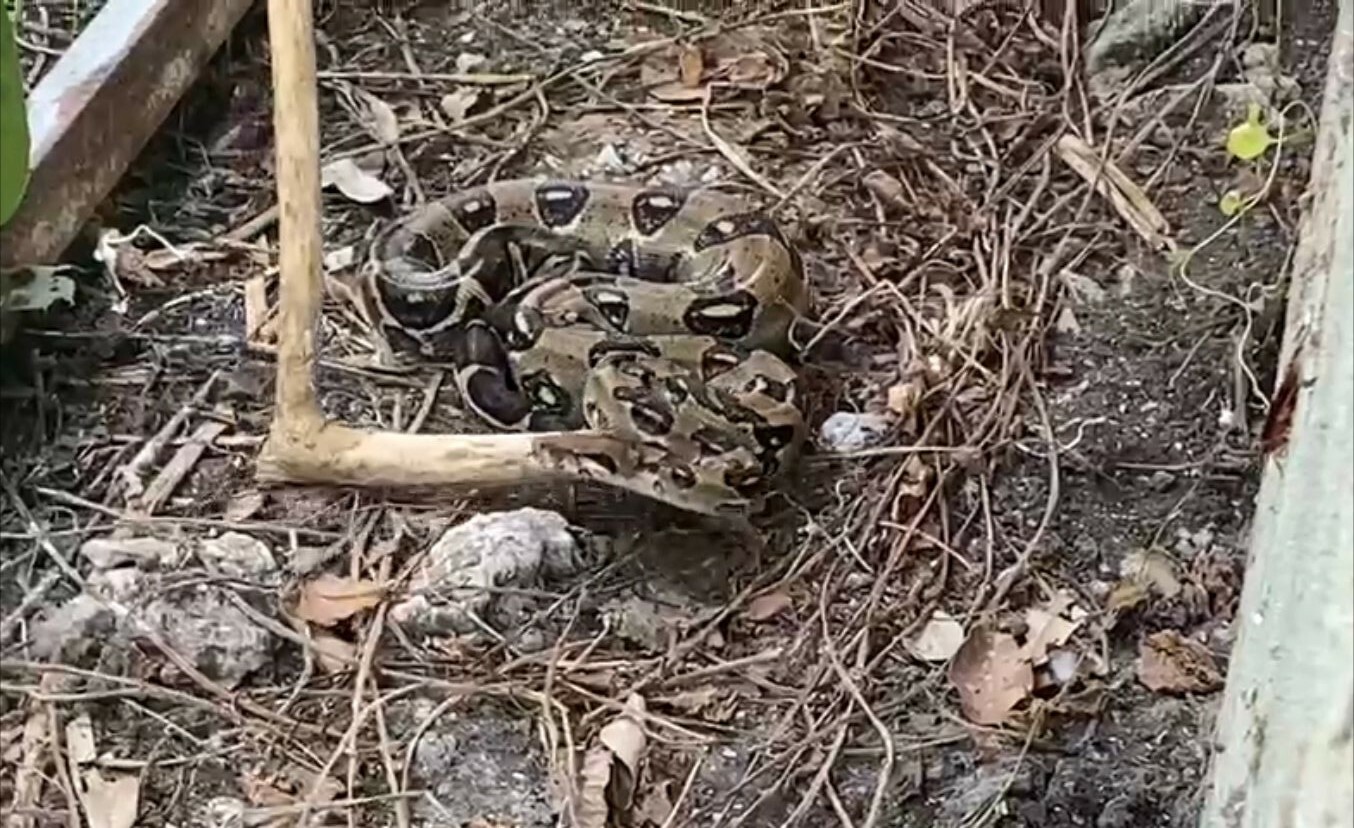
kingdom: Animalia
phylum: Chordata
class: Squamata
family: Boidae
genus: Boa
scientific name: Boa imperator
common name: Central american boa
